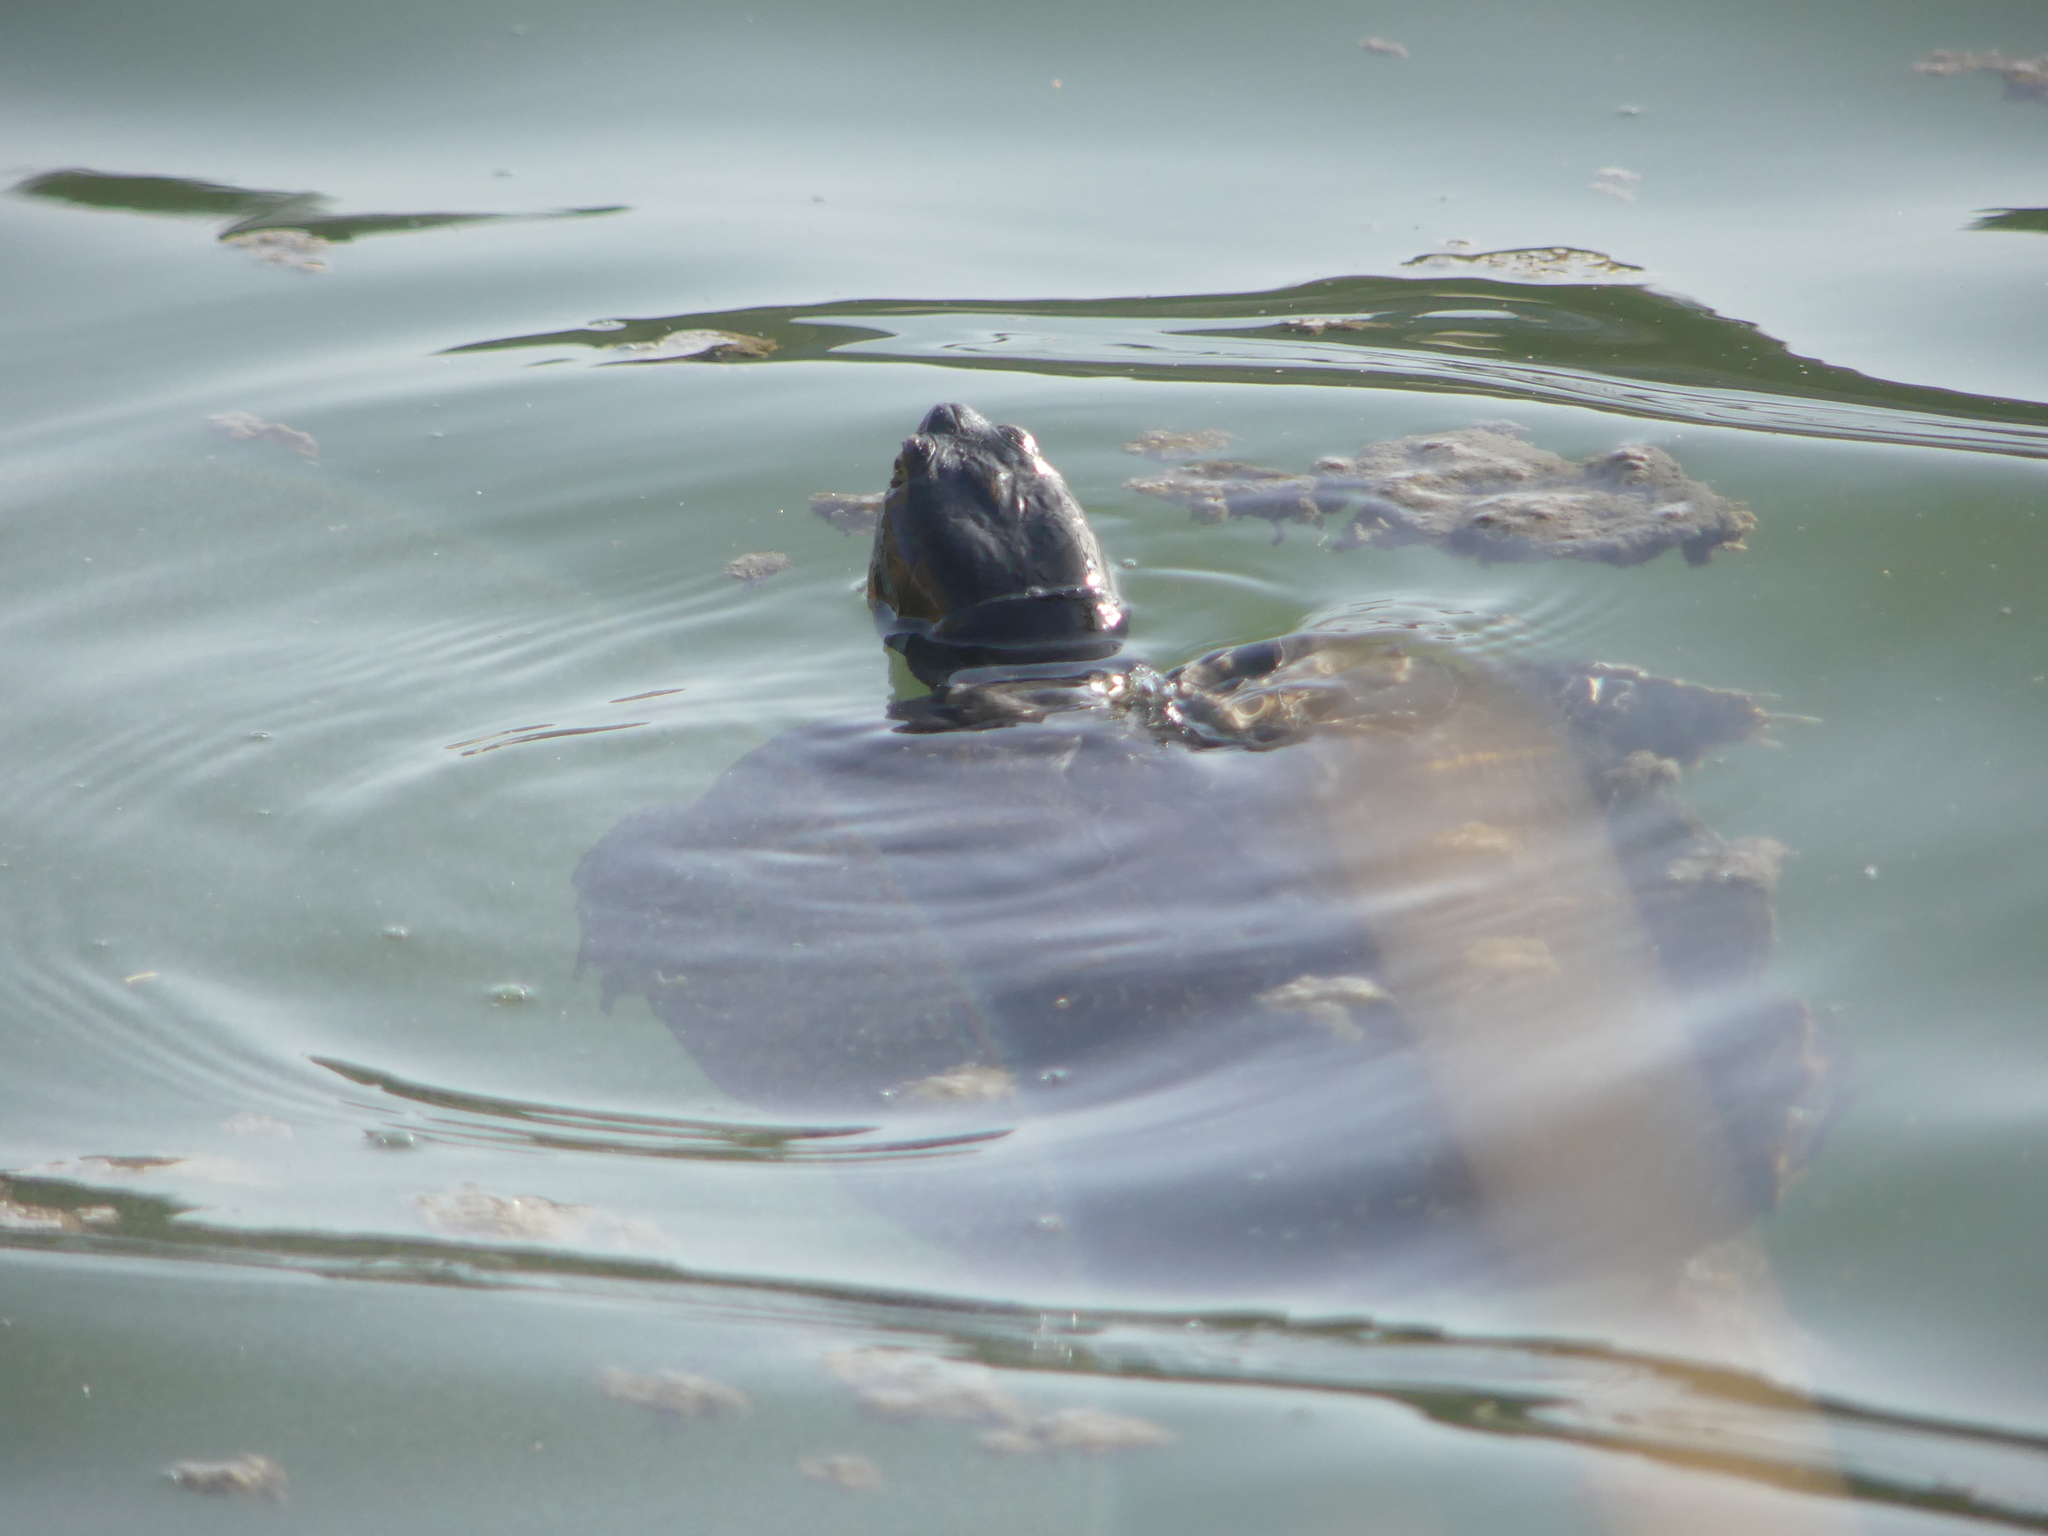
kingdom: Animalia
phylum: Chordata
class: Testudines
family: Emydidae
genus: Trachemys
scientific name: Trachemys scripta
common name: Slider
